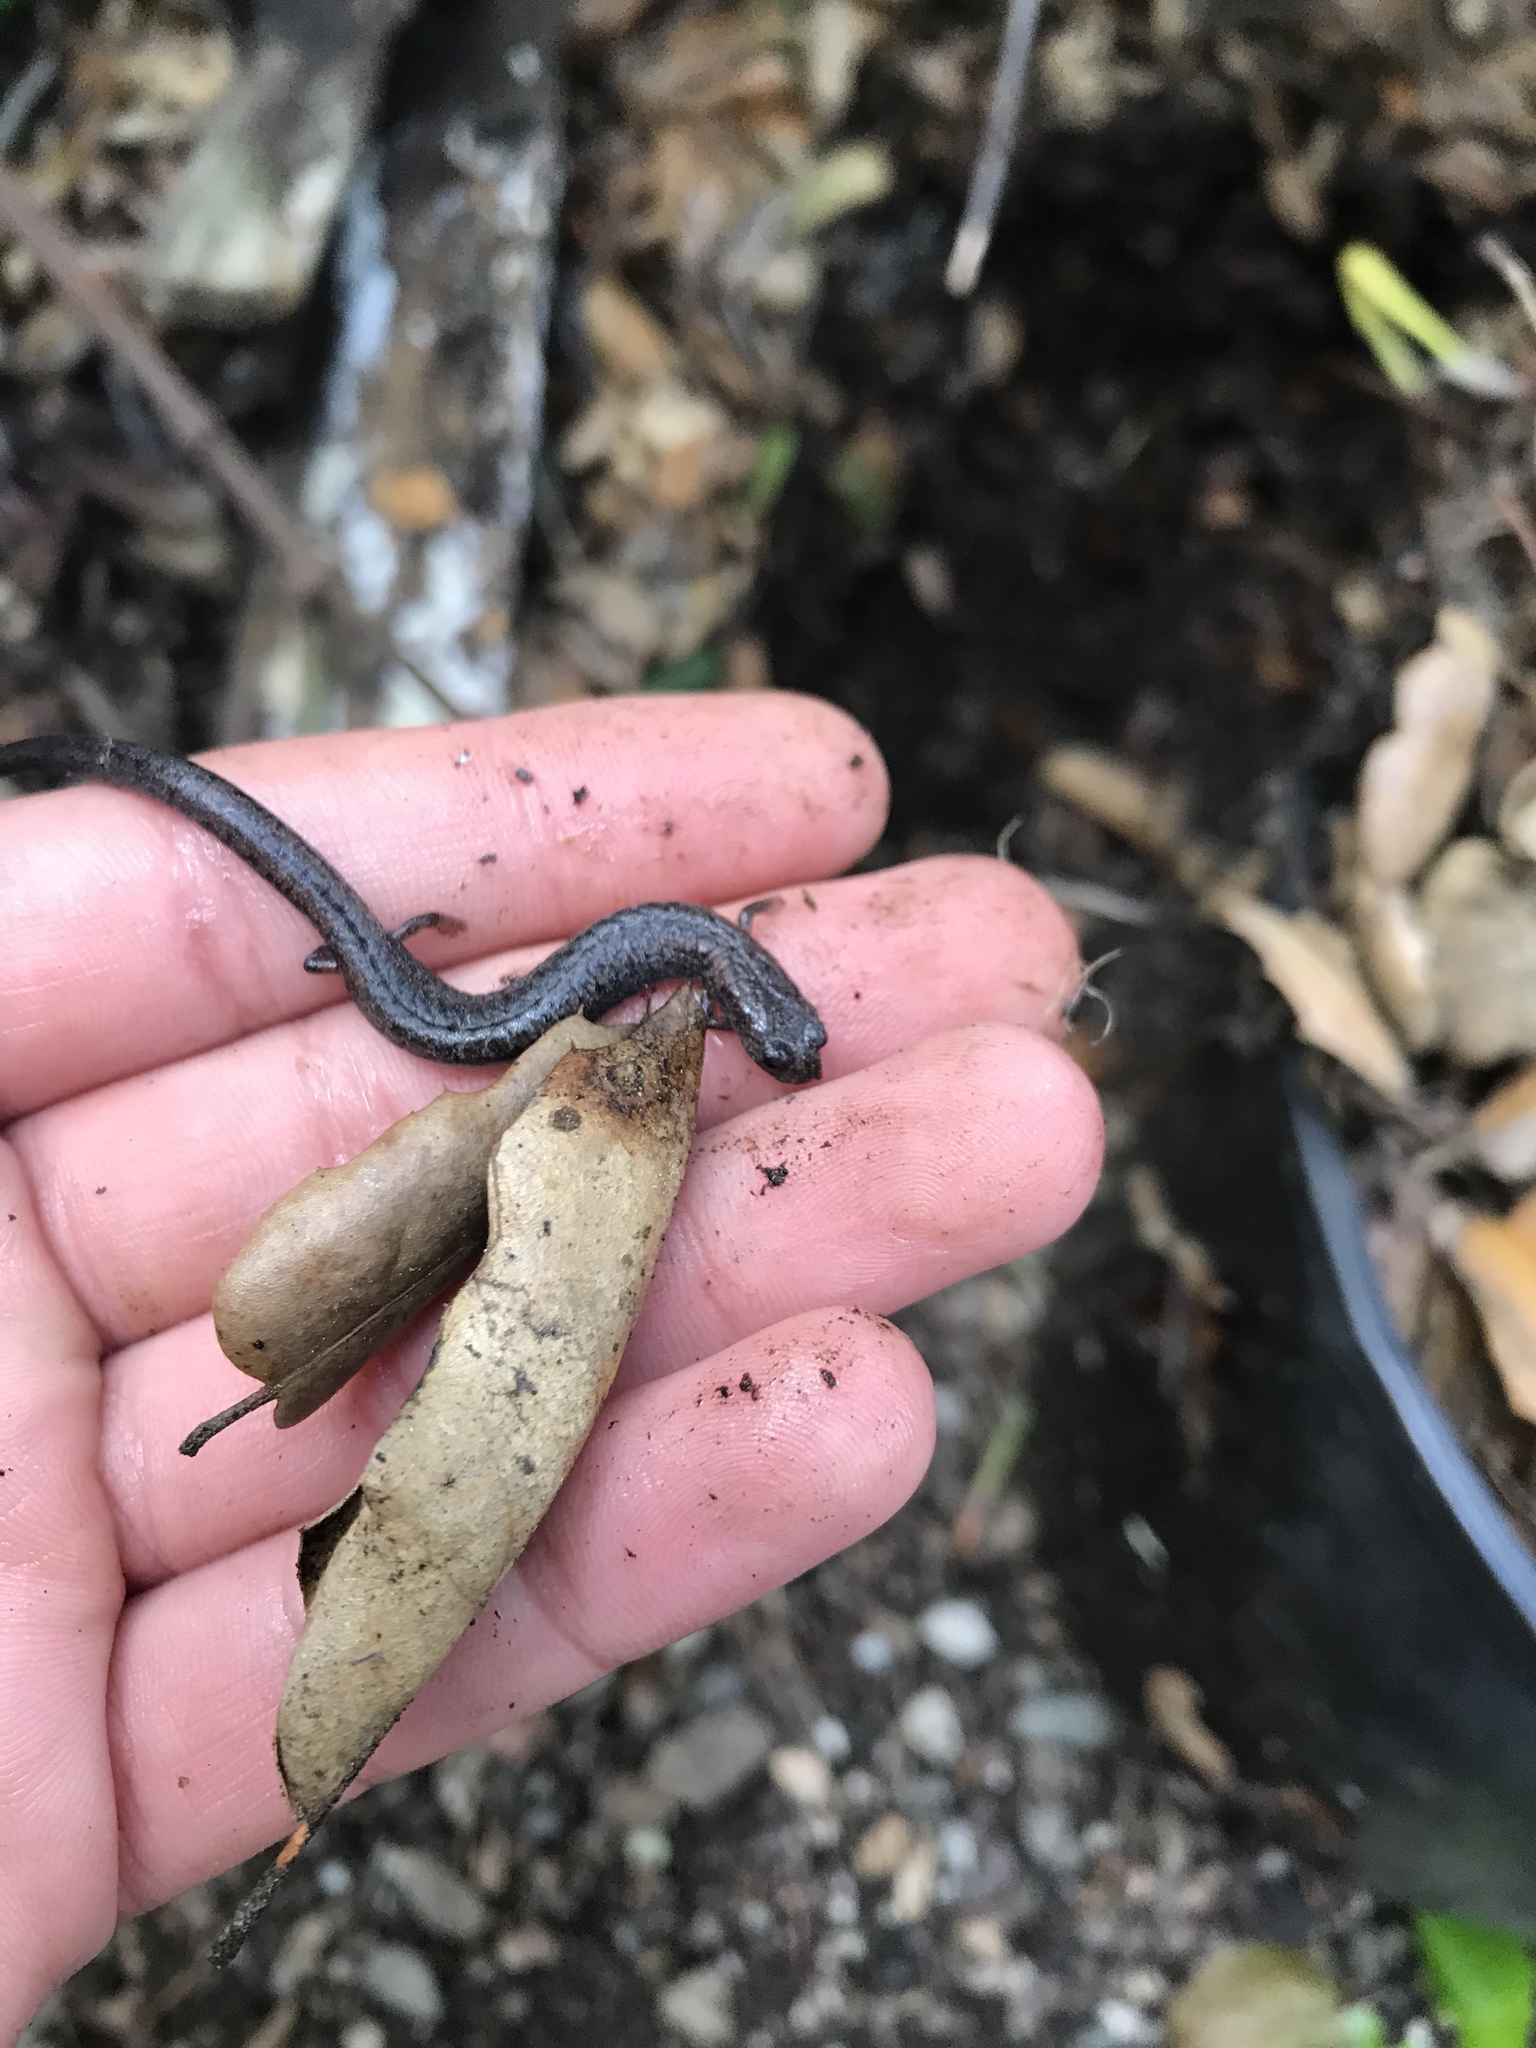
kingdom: Animalia
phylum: Chordata
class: Amphibia
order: Caudata
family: Plethodontidae
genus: Batrachoseps
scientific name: Batrachoseps attenuatus
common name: California slender salamander
